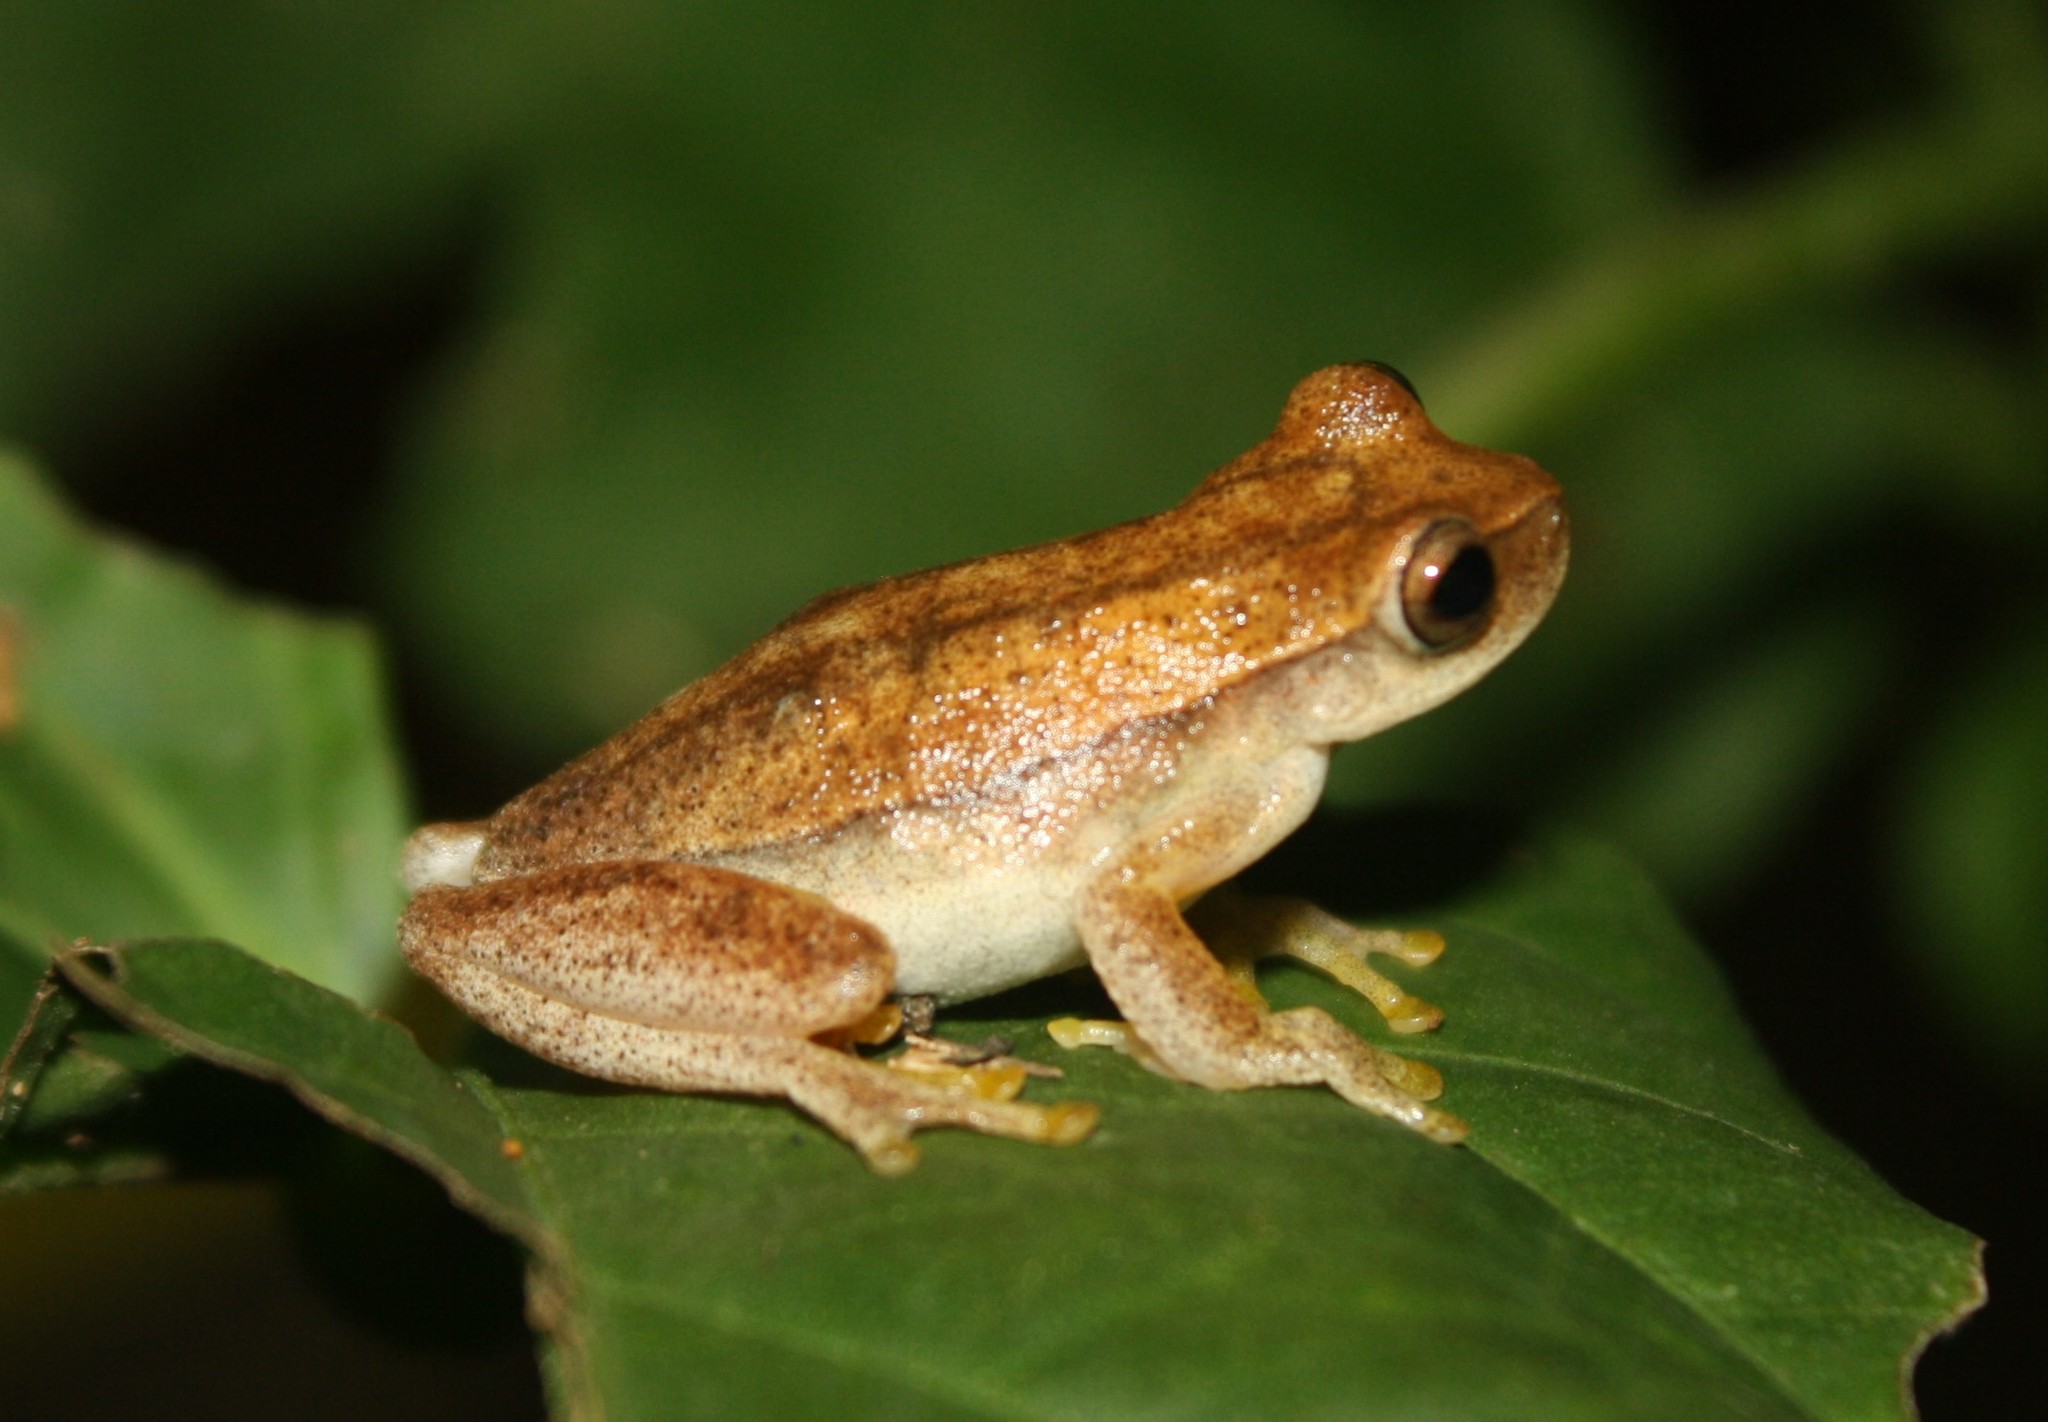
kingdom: Animalia
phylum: Chordata
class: Amphibia
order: Anura
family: Hylidae
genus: Dendropsophus
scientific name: Dendropsophus microcephalus
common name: Small-headed treefrog
